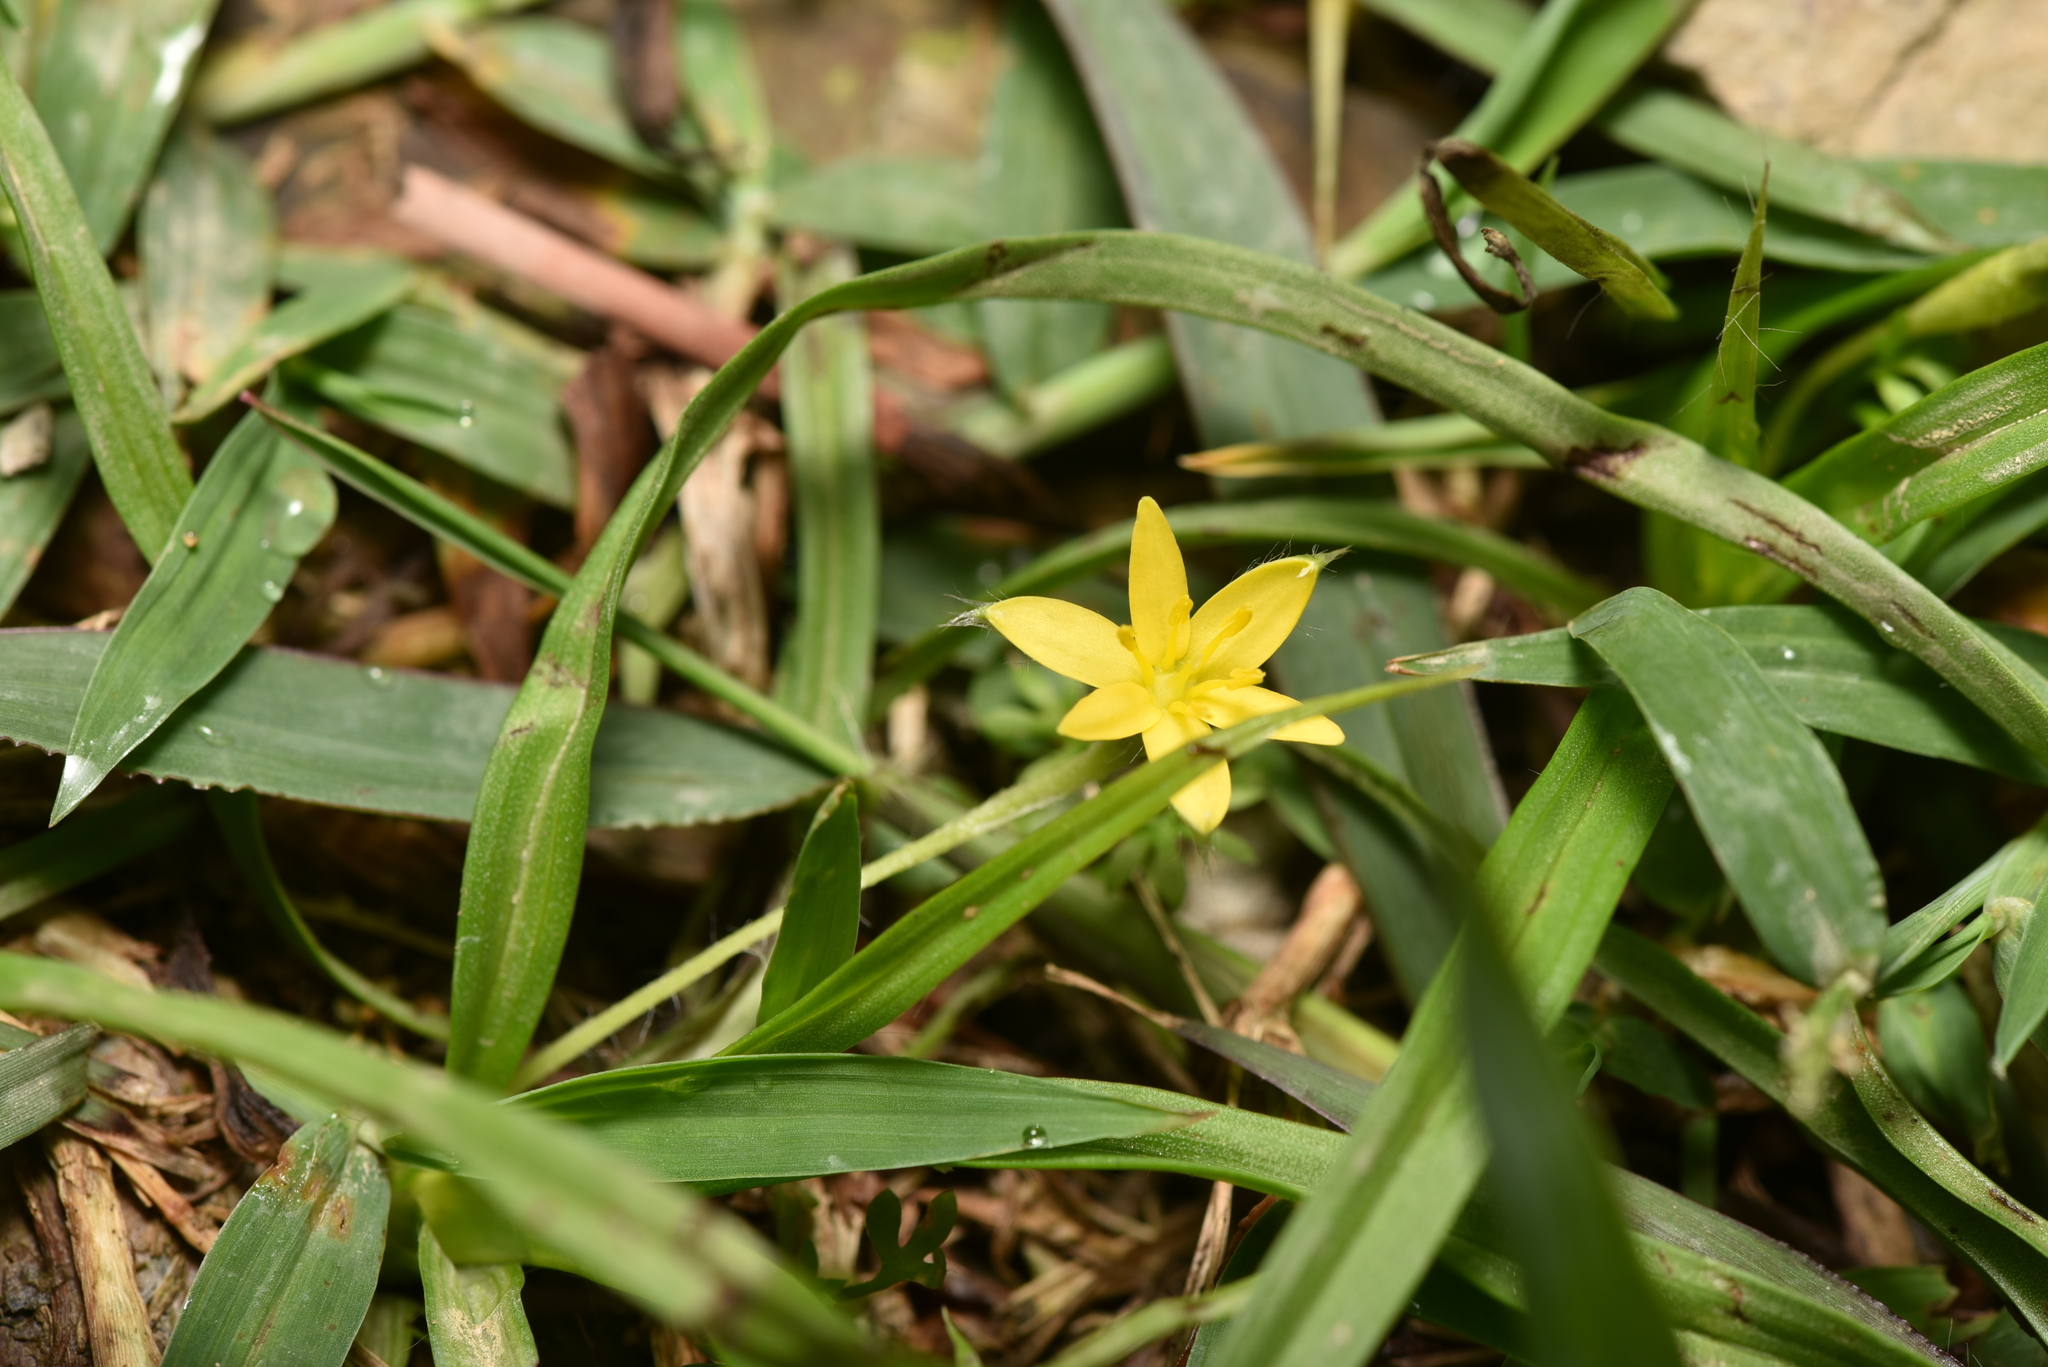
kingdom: Plantae
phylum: Tracheophyta
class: Liliopsida
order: Asparagales
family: Hypoxidaceae
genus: Hypoxis
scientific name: Hypoxis aurea
